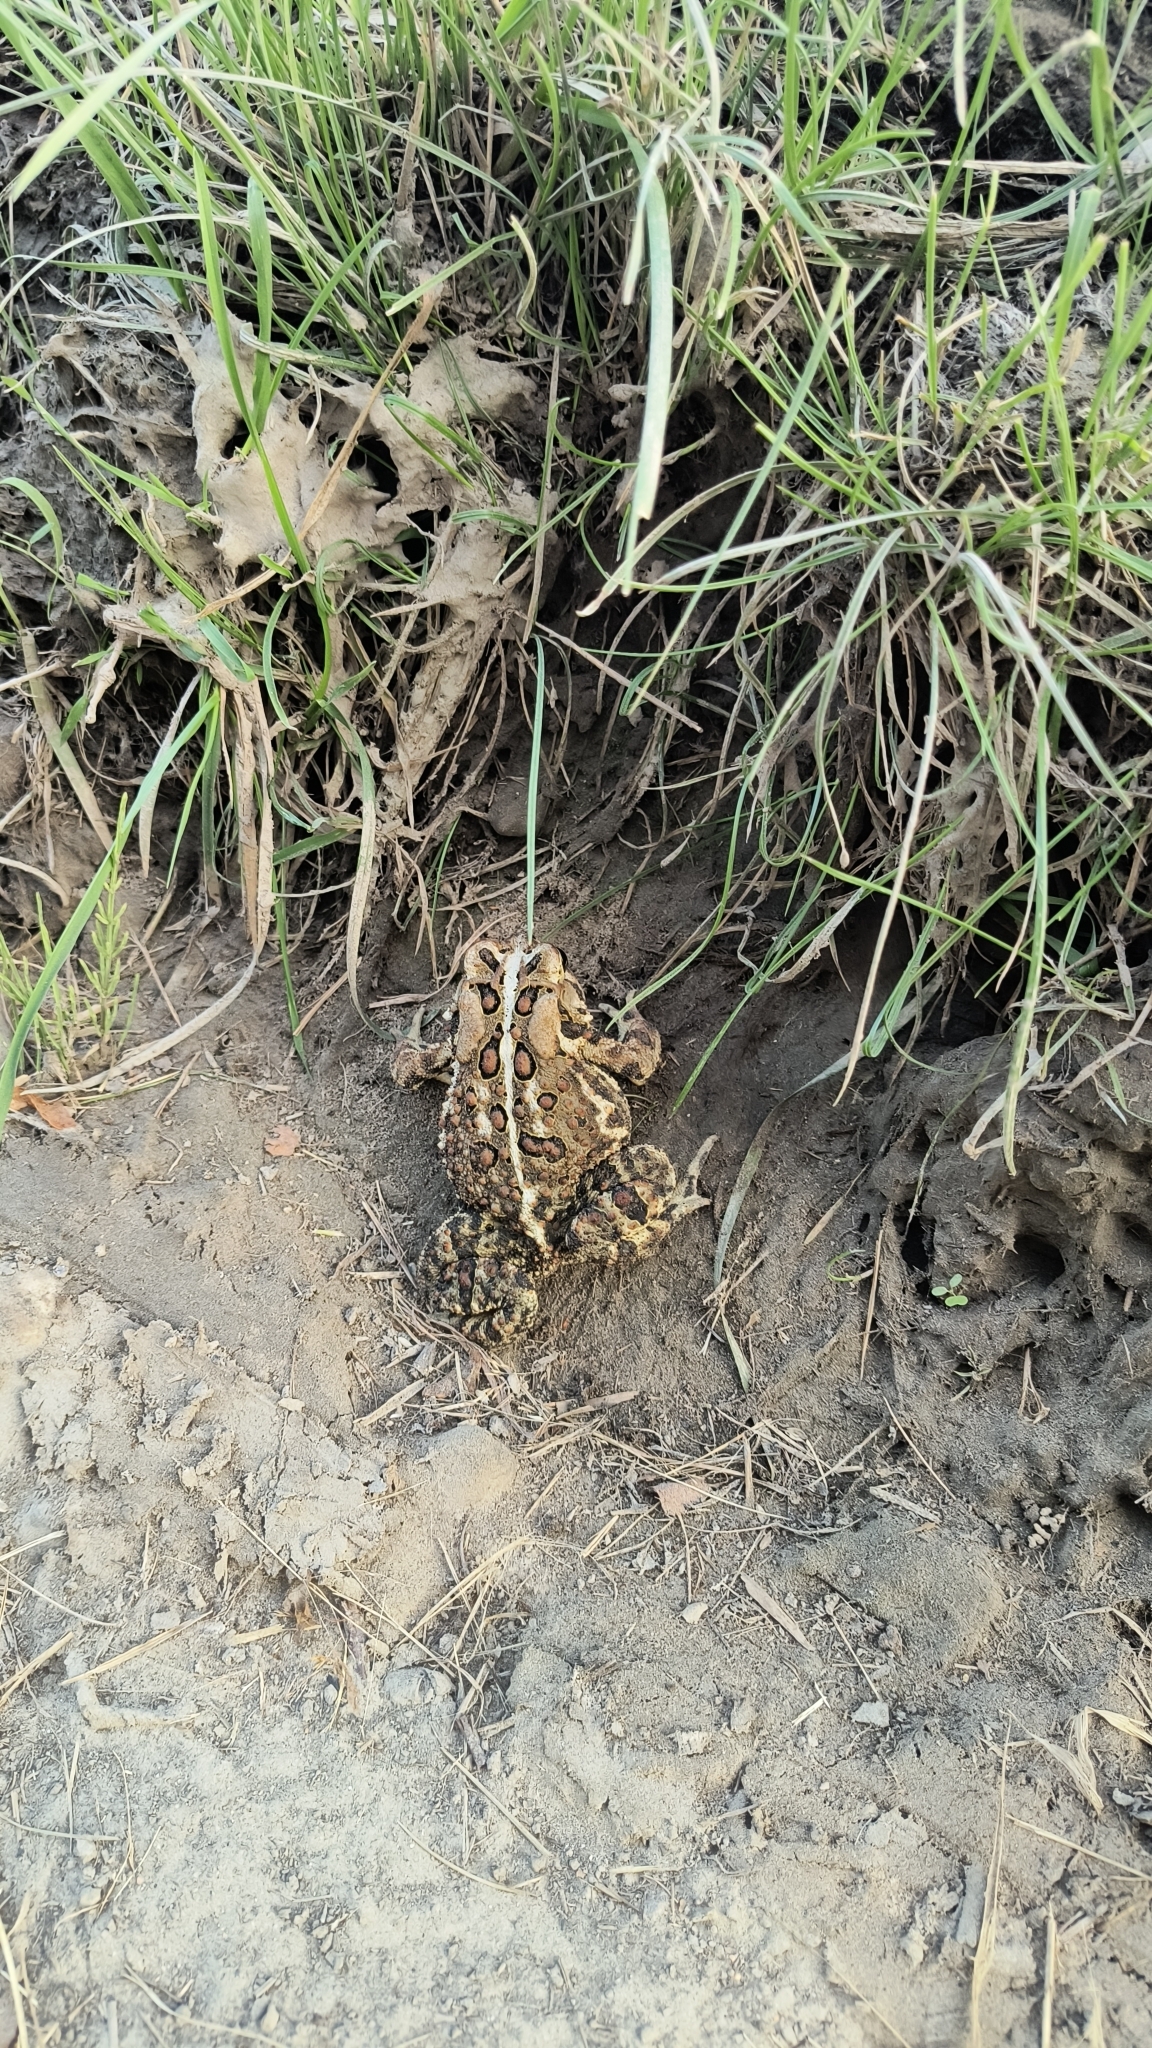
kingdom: Animalia
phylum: Chordata
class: Amphibia
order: Anura
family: Bufonidae
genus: Anaxyrus
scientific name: Anaxyrus americanus
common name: American toad
